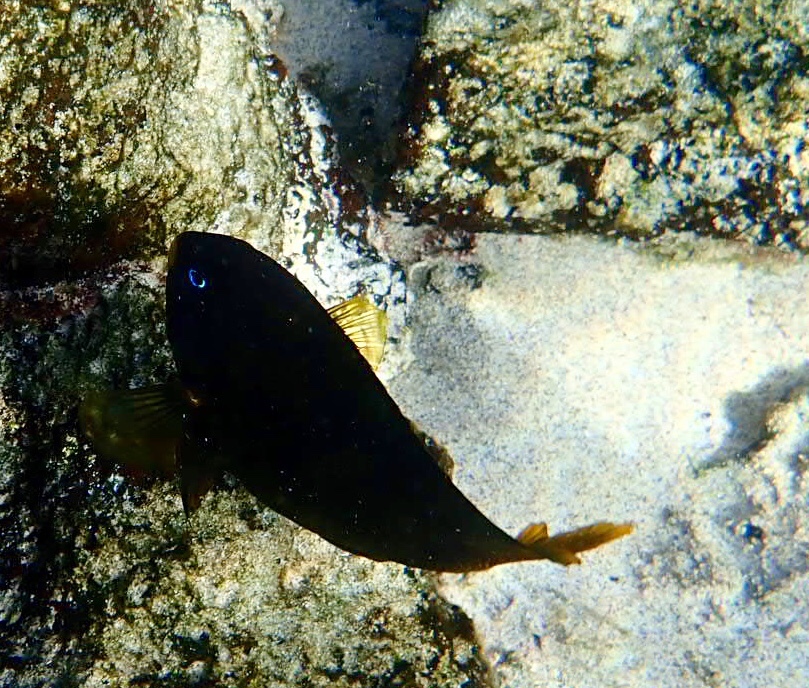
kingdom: Animalia
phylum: Chordata
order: Perciformes
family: Pomacentridae
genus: Stegastes
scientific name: Stegastes arcifrons
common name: Galapagos gregory
